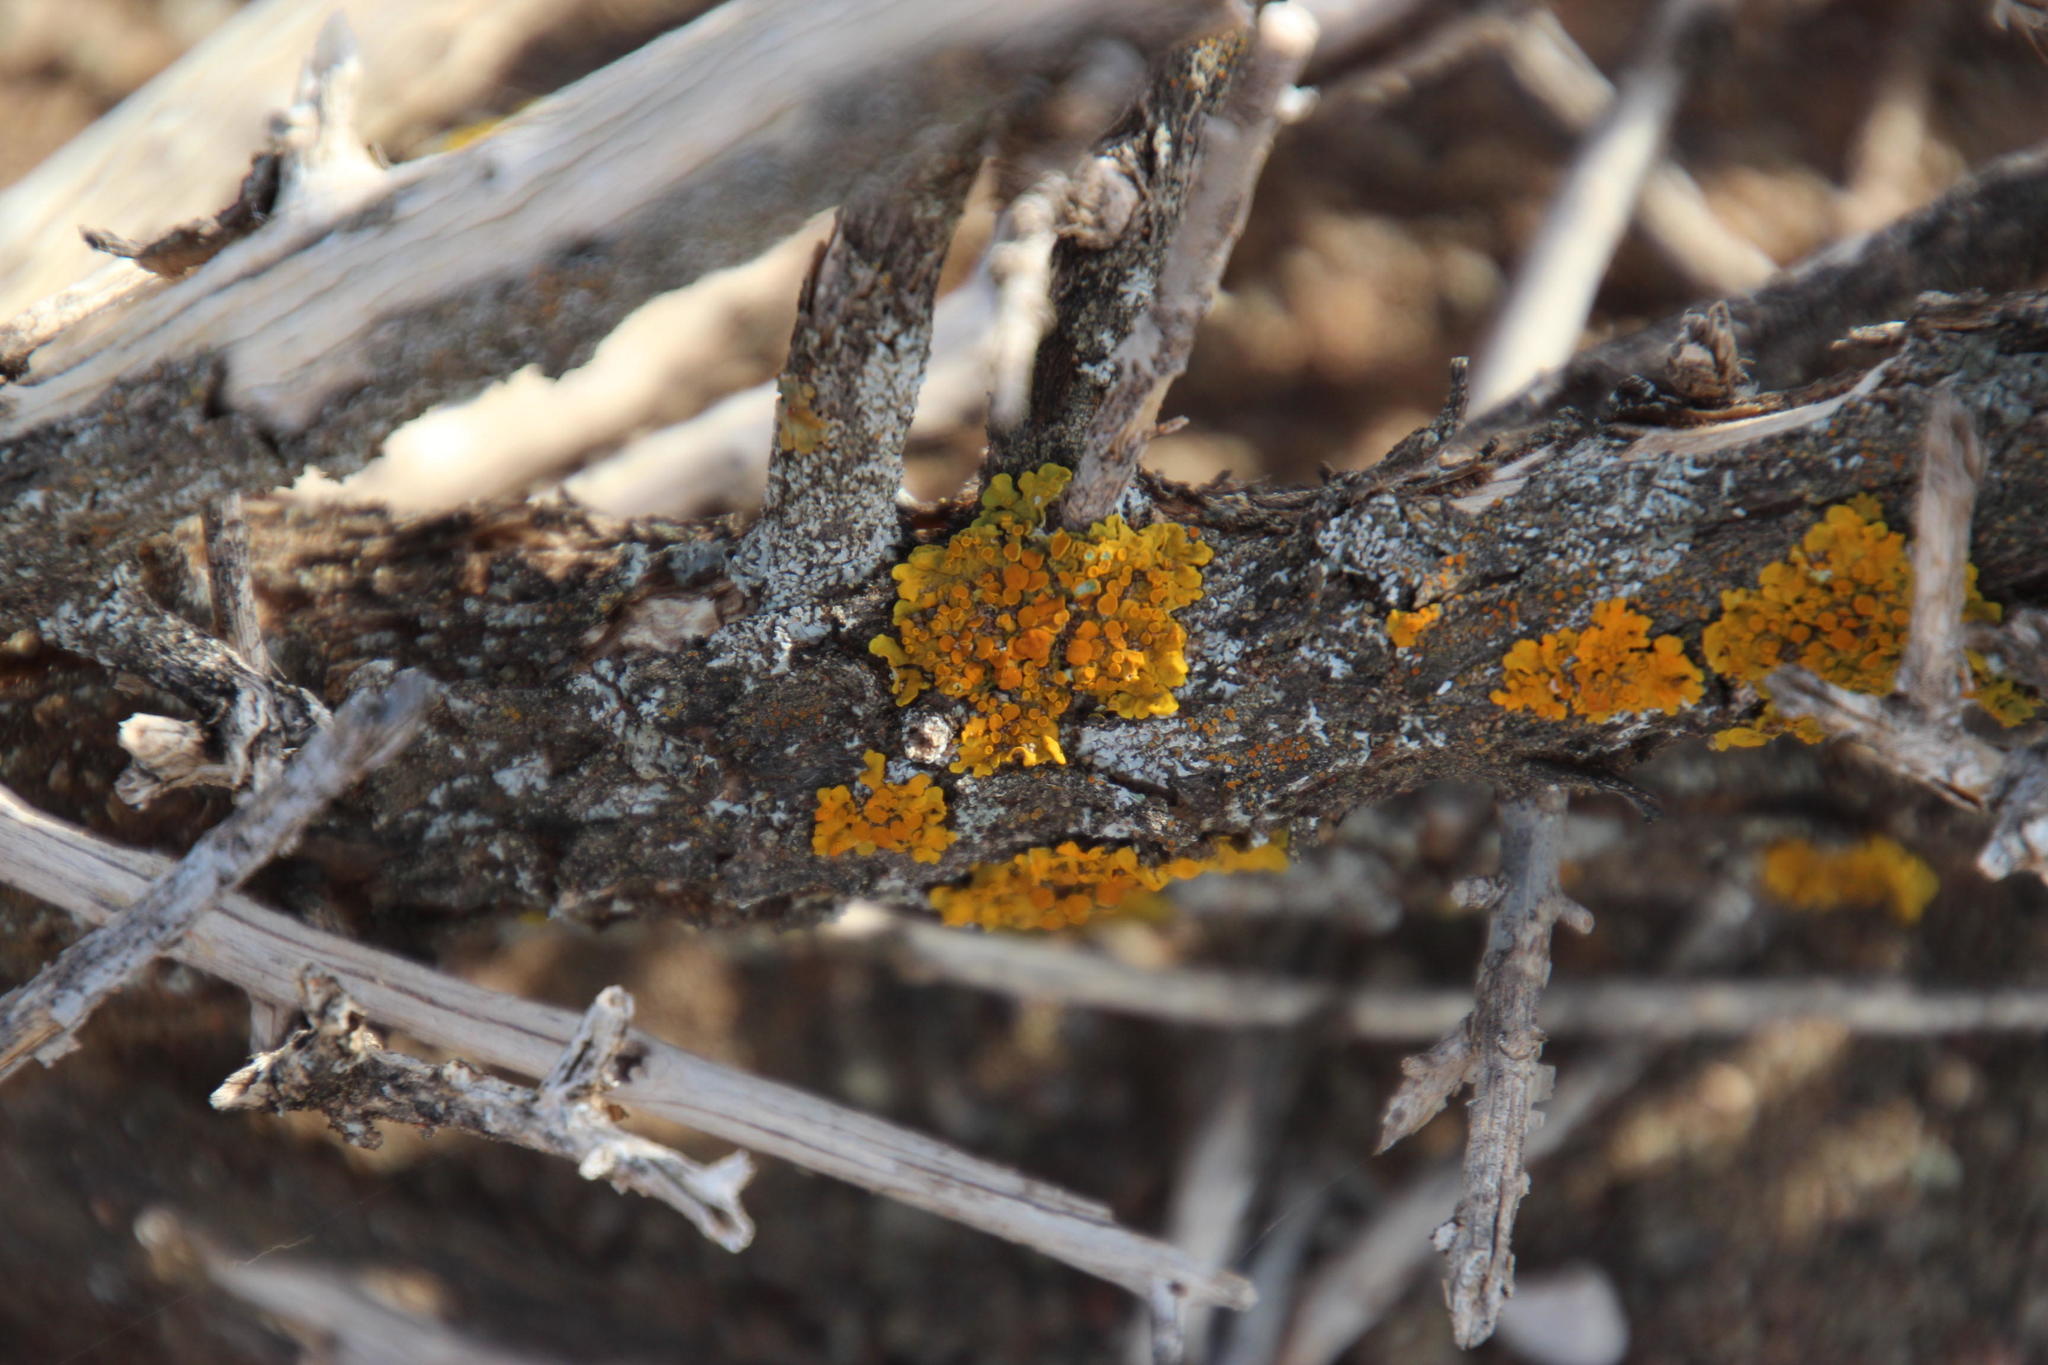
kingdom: Fungi
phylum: Ascomycota
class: Lecanoromycetes
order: Teloschistales
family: Teloschistaceae
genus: Xanthoria
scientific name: Xanthoria parietina
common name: Common orange lichen
